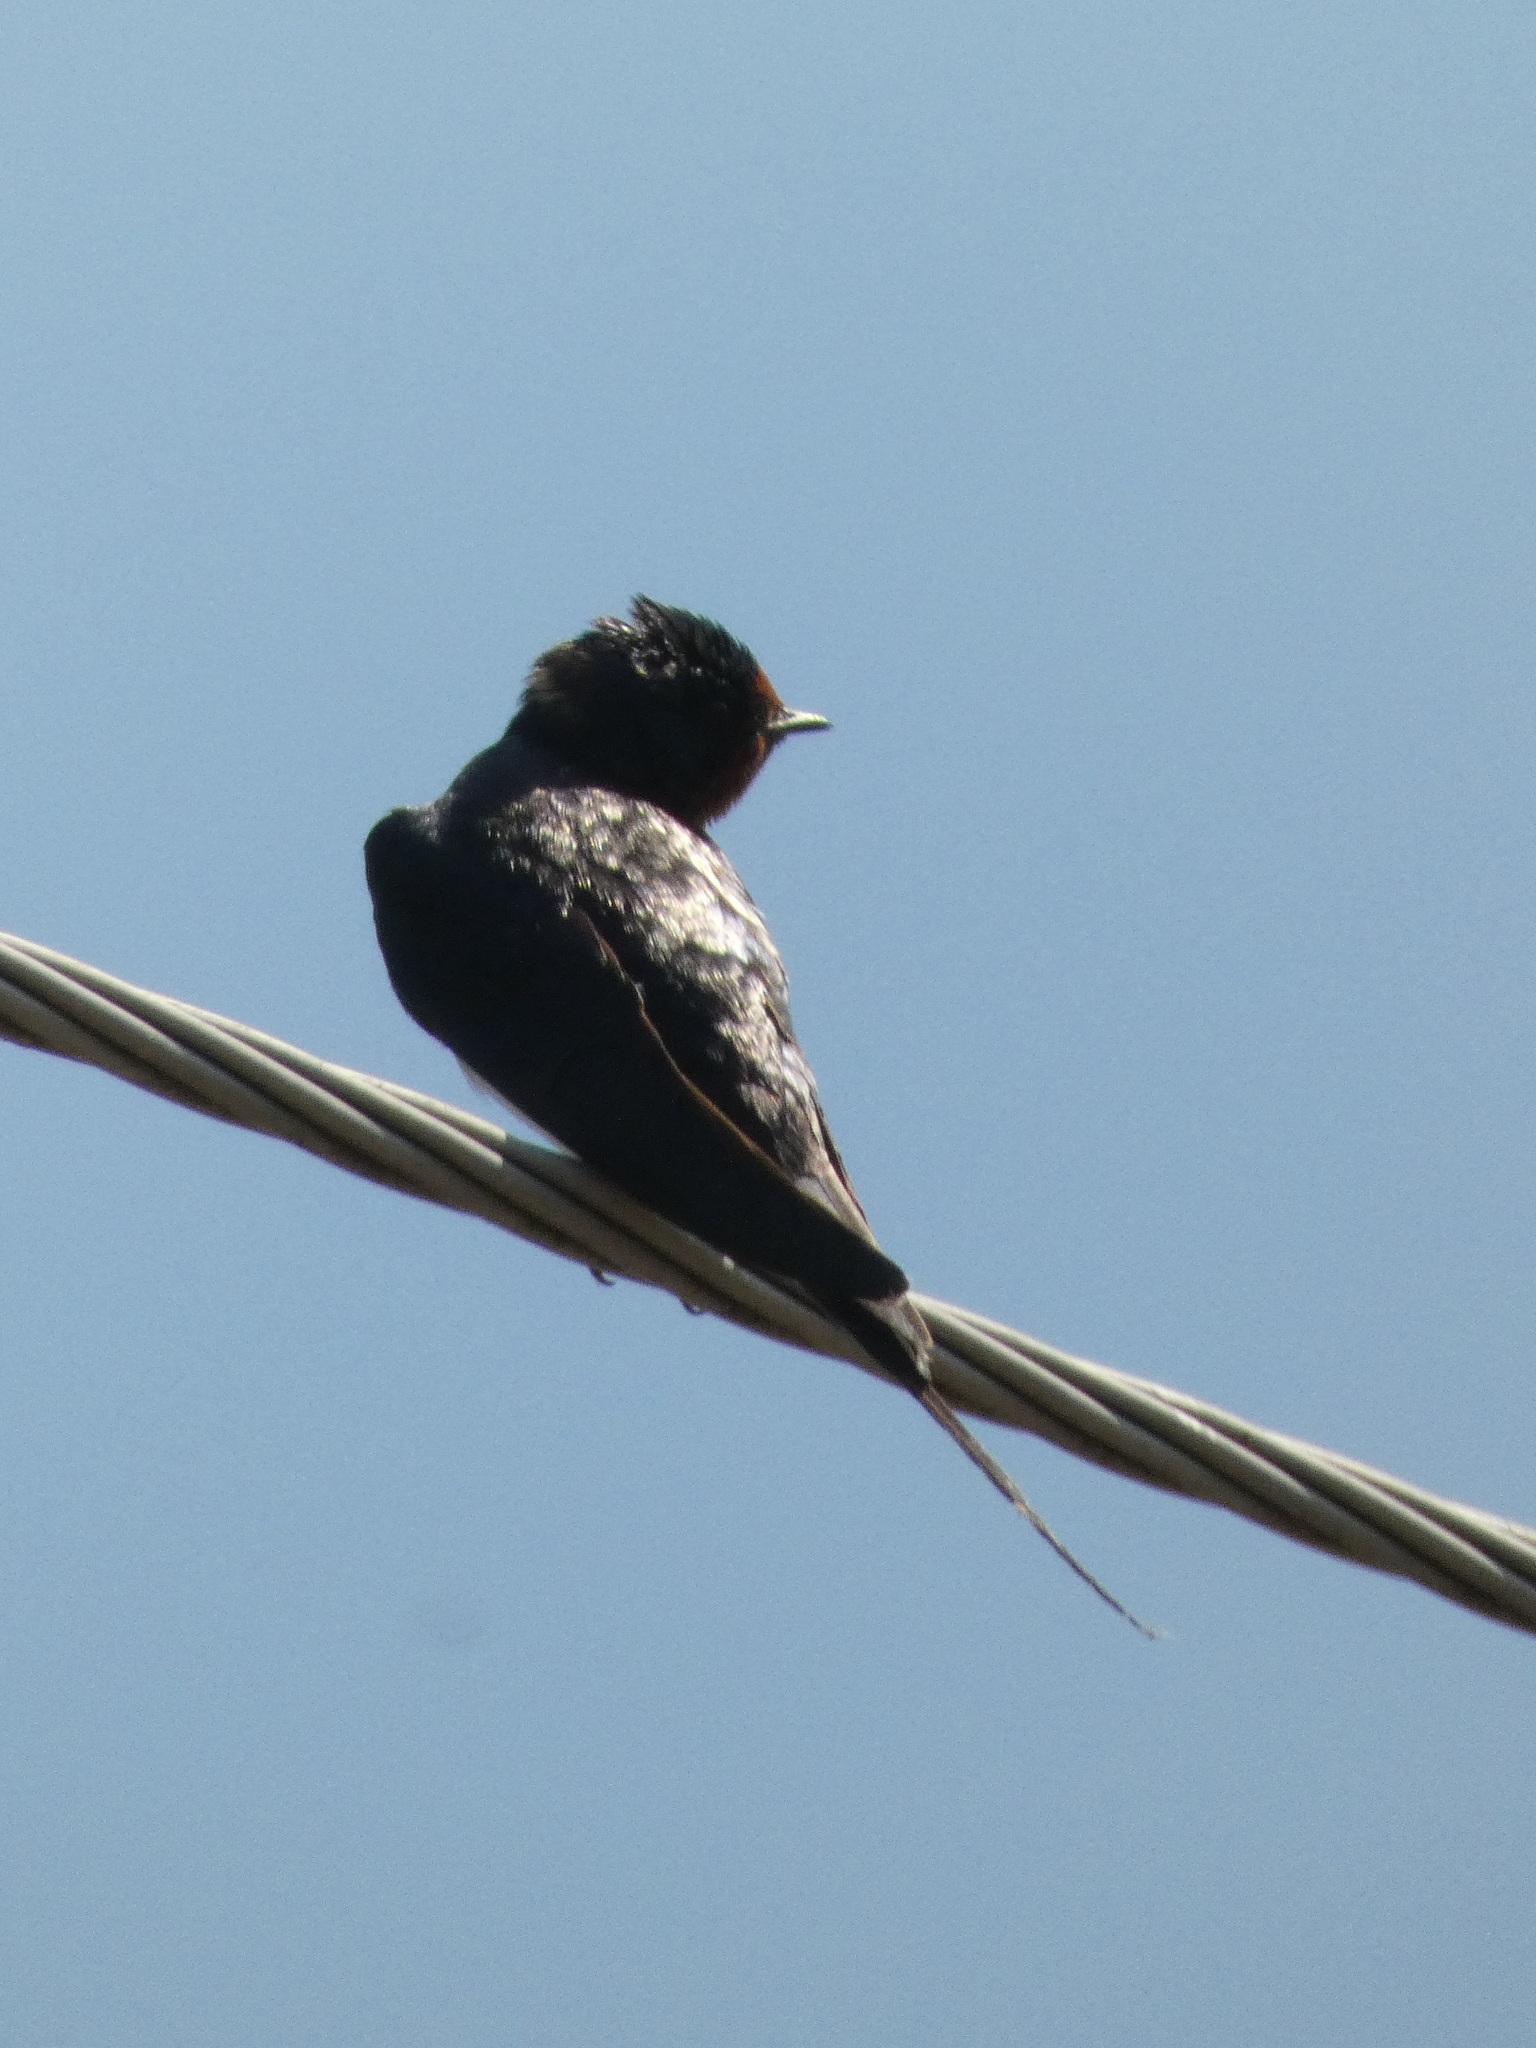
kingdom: Animalia
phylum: Chordata
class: Aves
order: Passeriformes
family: Hirundinidae
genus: Hirundo
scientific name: Hirundo rustica
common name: Barn swallow
